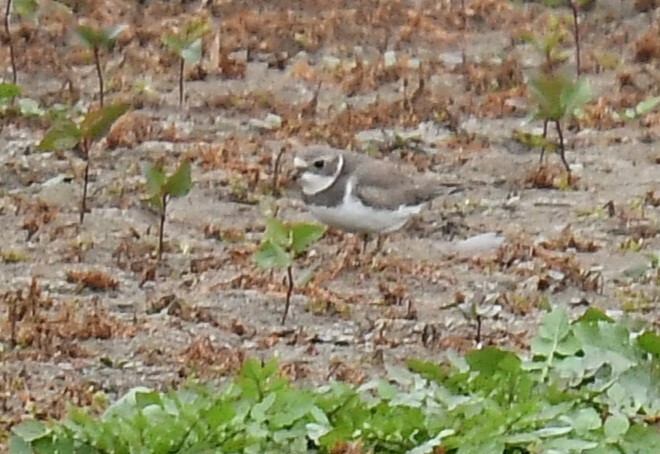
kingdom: Animalia
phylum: Chordata
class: Aves
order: Charadriiformes
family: Charadriidae
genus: Charadrius
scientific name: Charadrius semipalmatus
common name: Semipalmated plover
